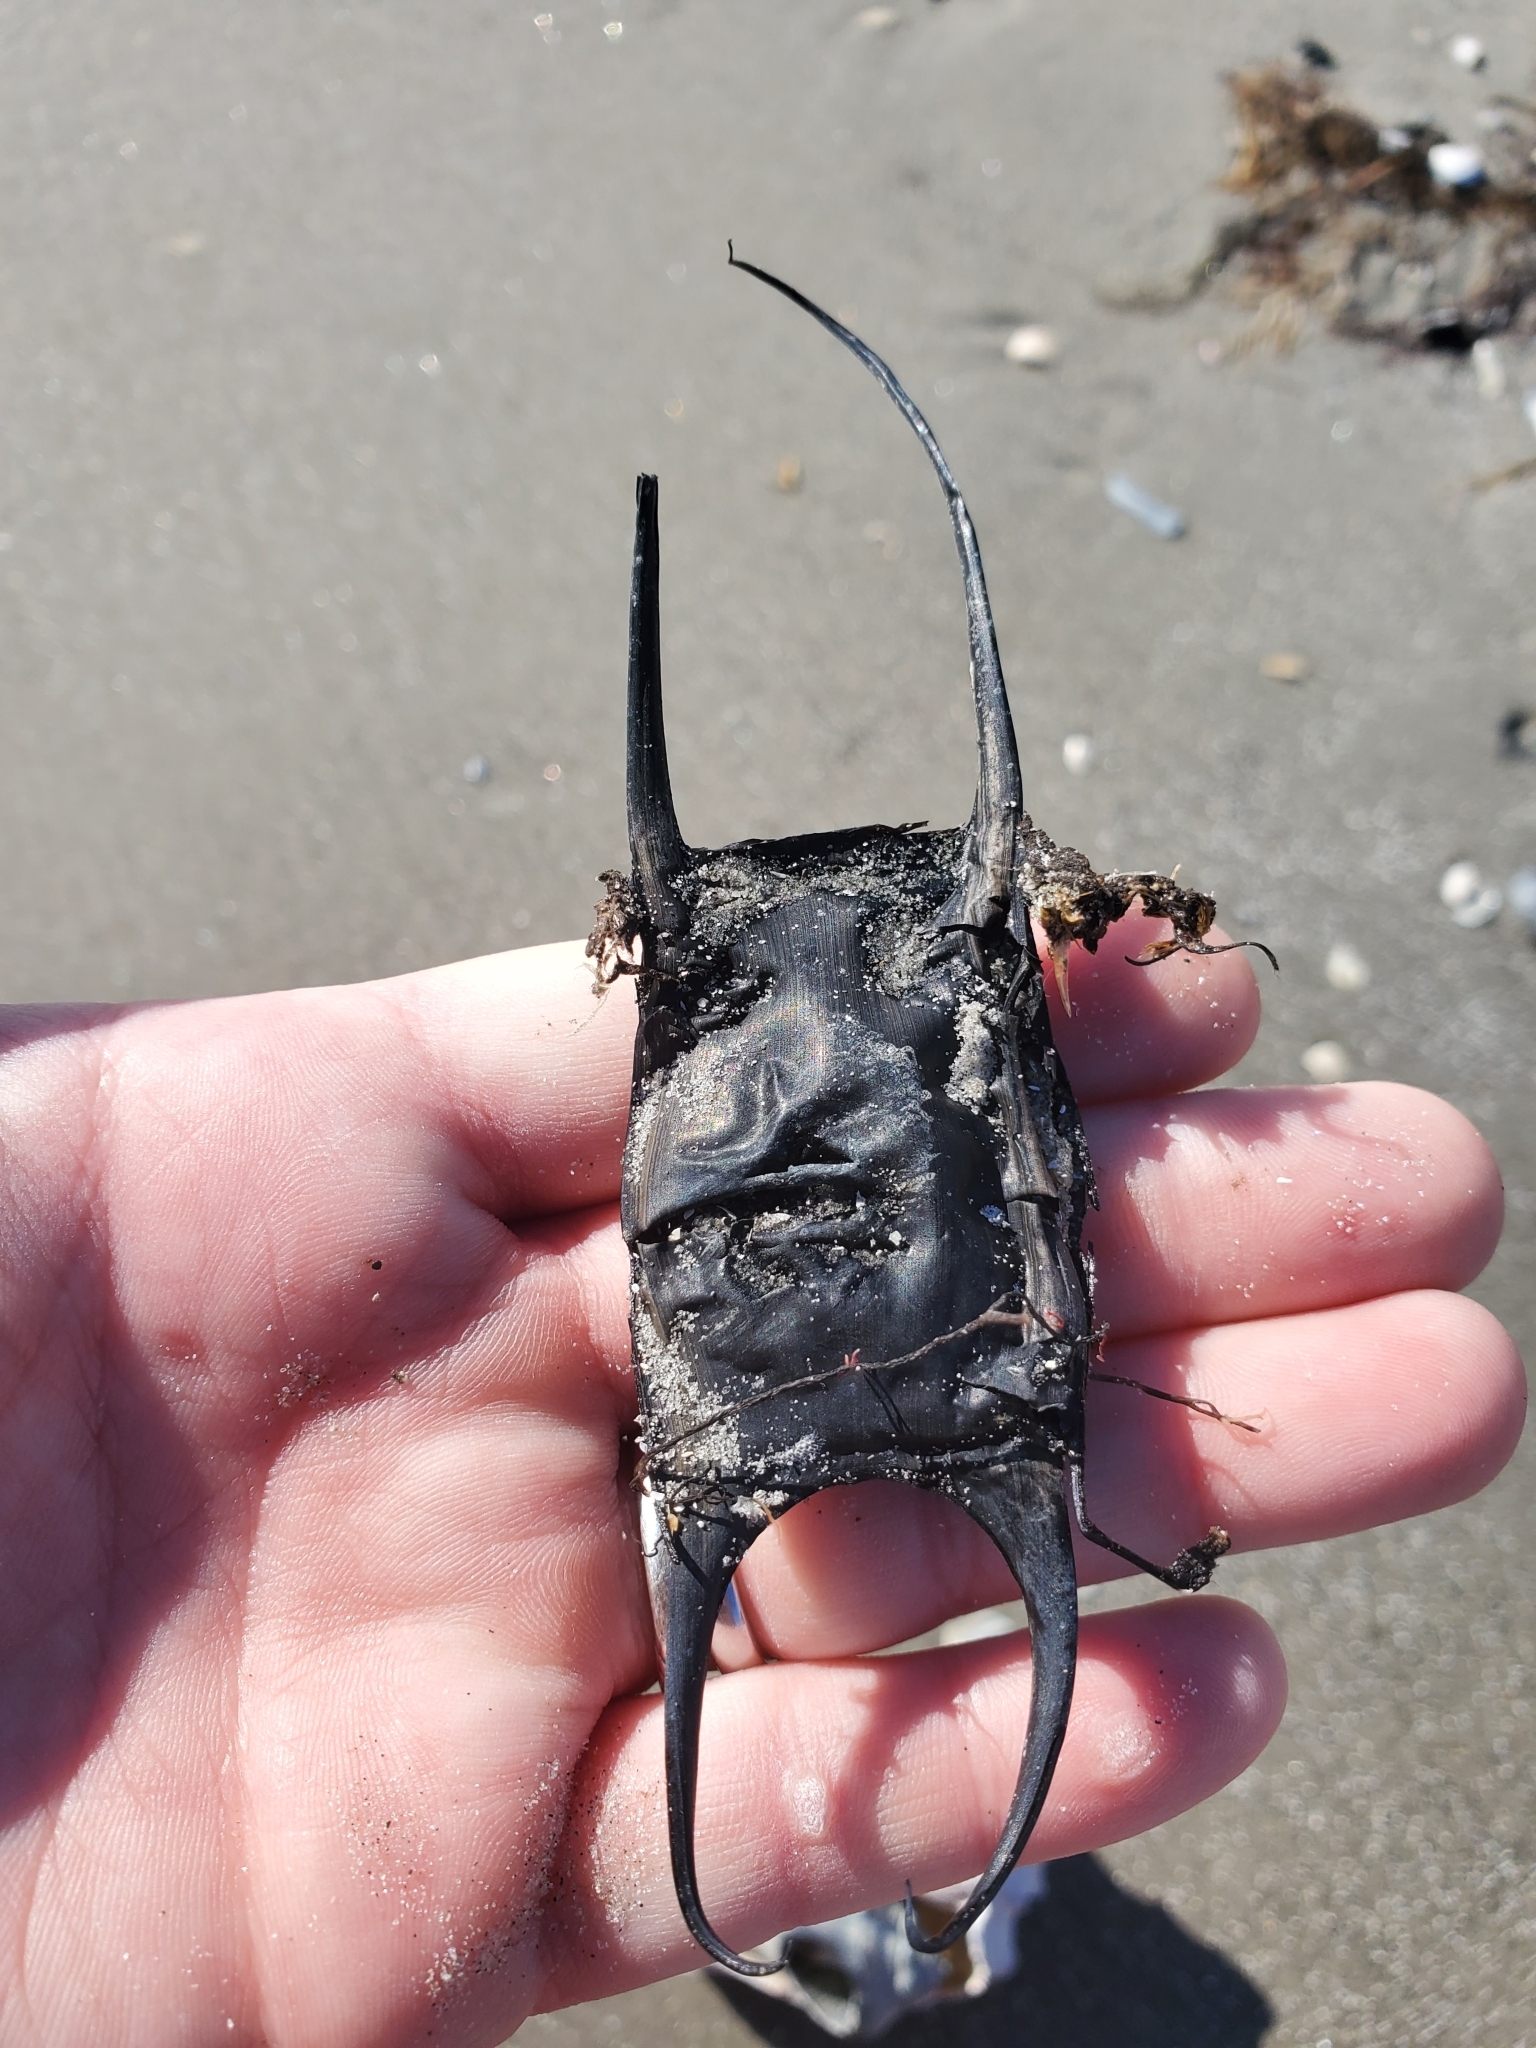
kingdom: Animalia
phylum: Chordata
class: Elasmobranchii
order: Rajiformes
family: Rajidae
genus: Leucoraja
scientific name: Leucoraja erinacea
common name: Little skate
